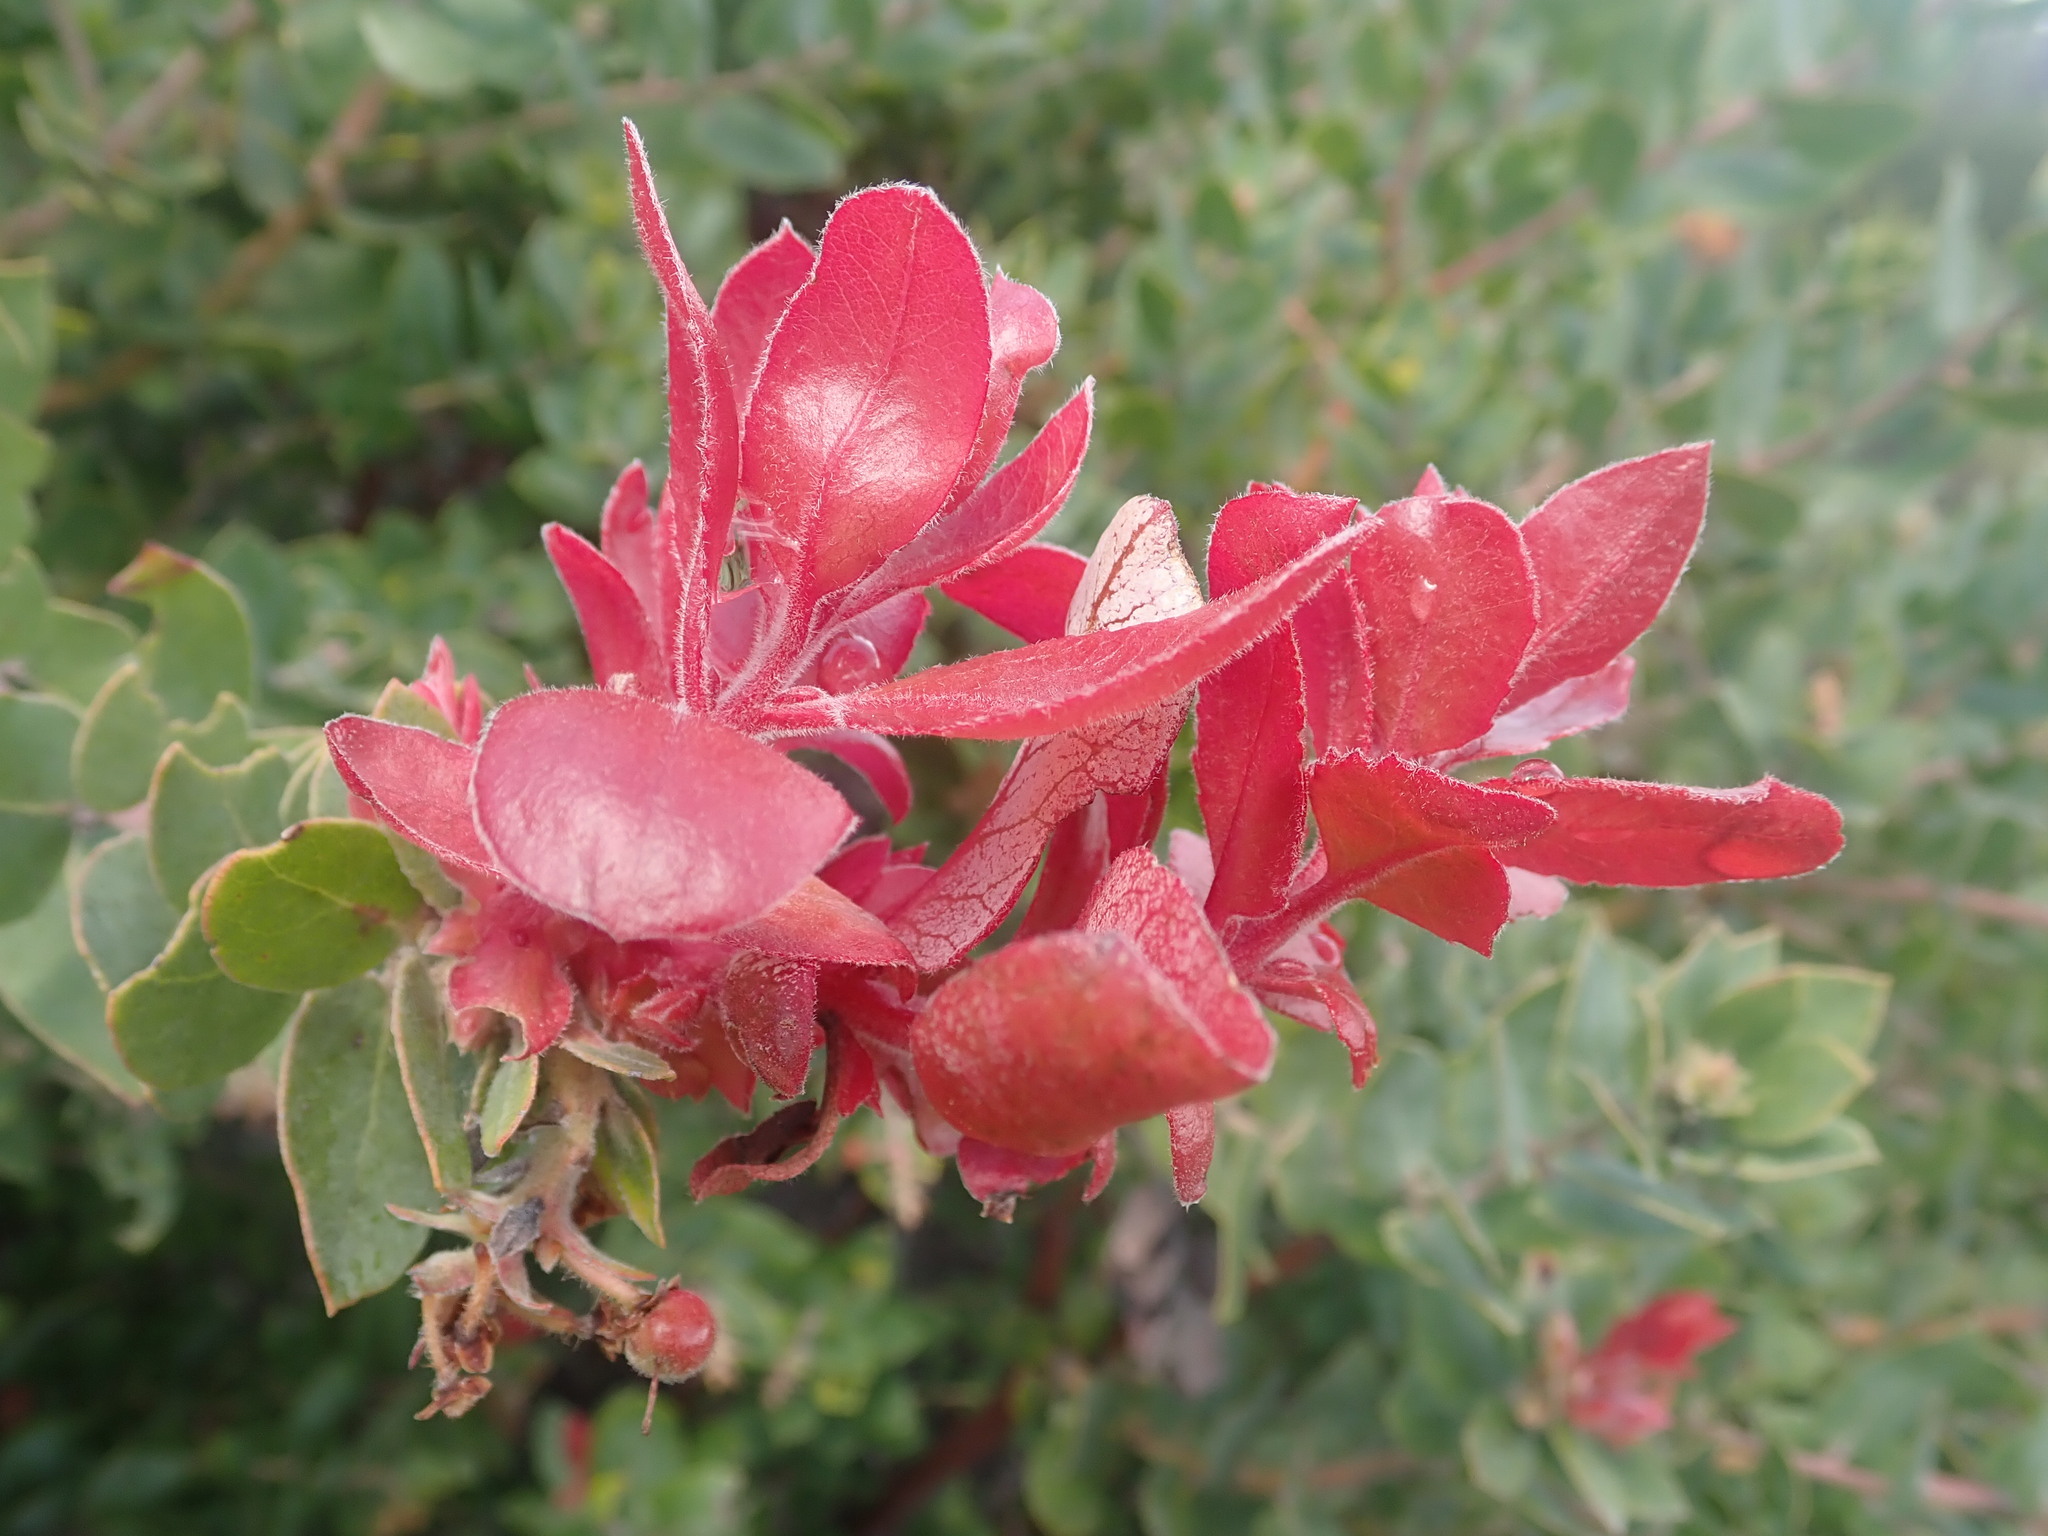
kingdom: Fungi
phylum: Basidiomycota
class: Exobasidiomycetes
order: Exobasidiales
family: Exobasidiaceae
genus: Exobasidium
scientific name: Exobasidium arctostaphyli
